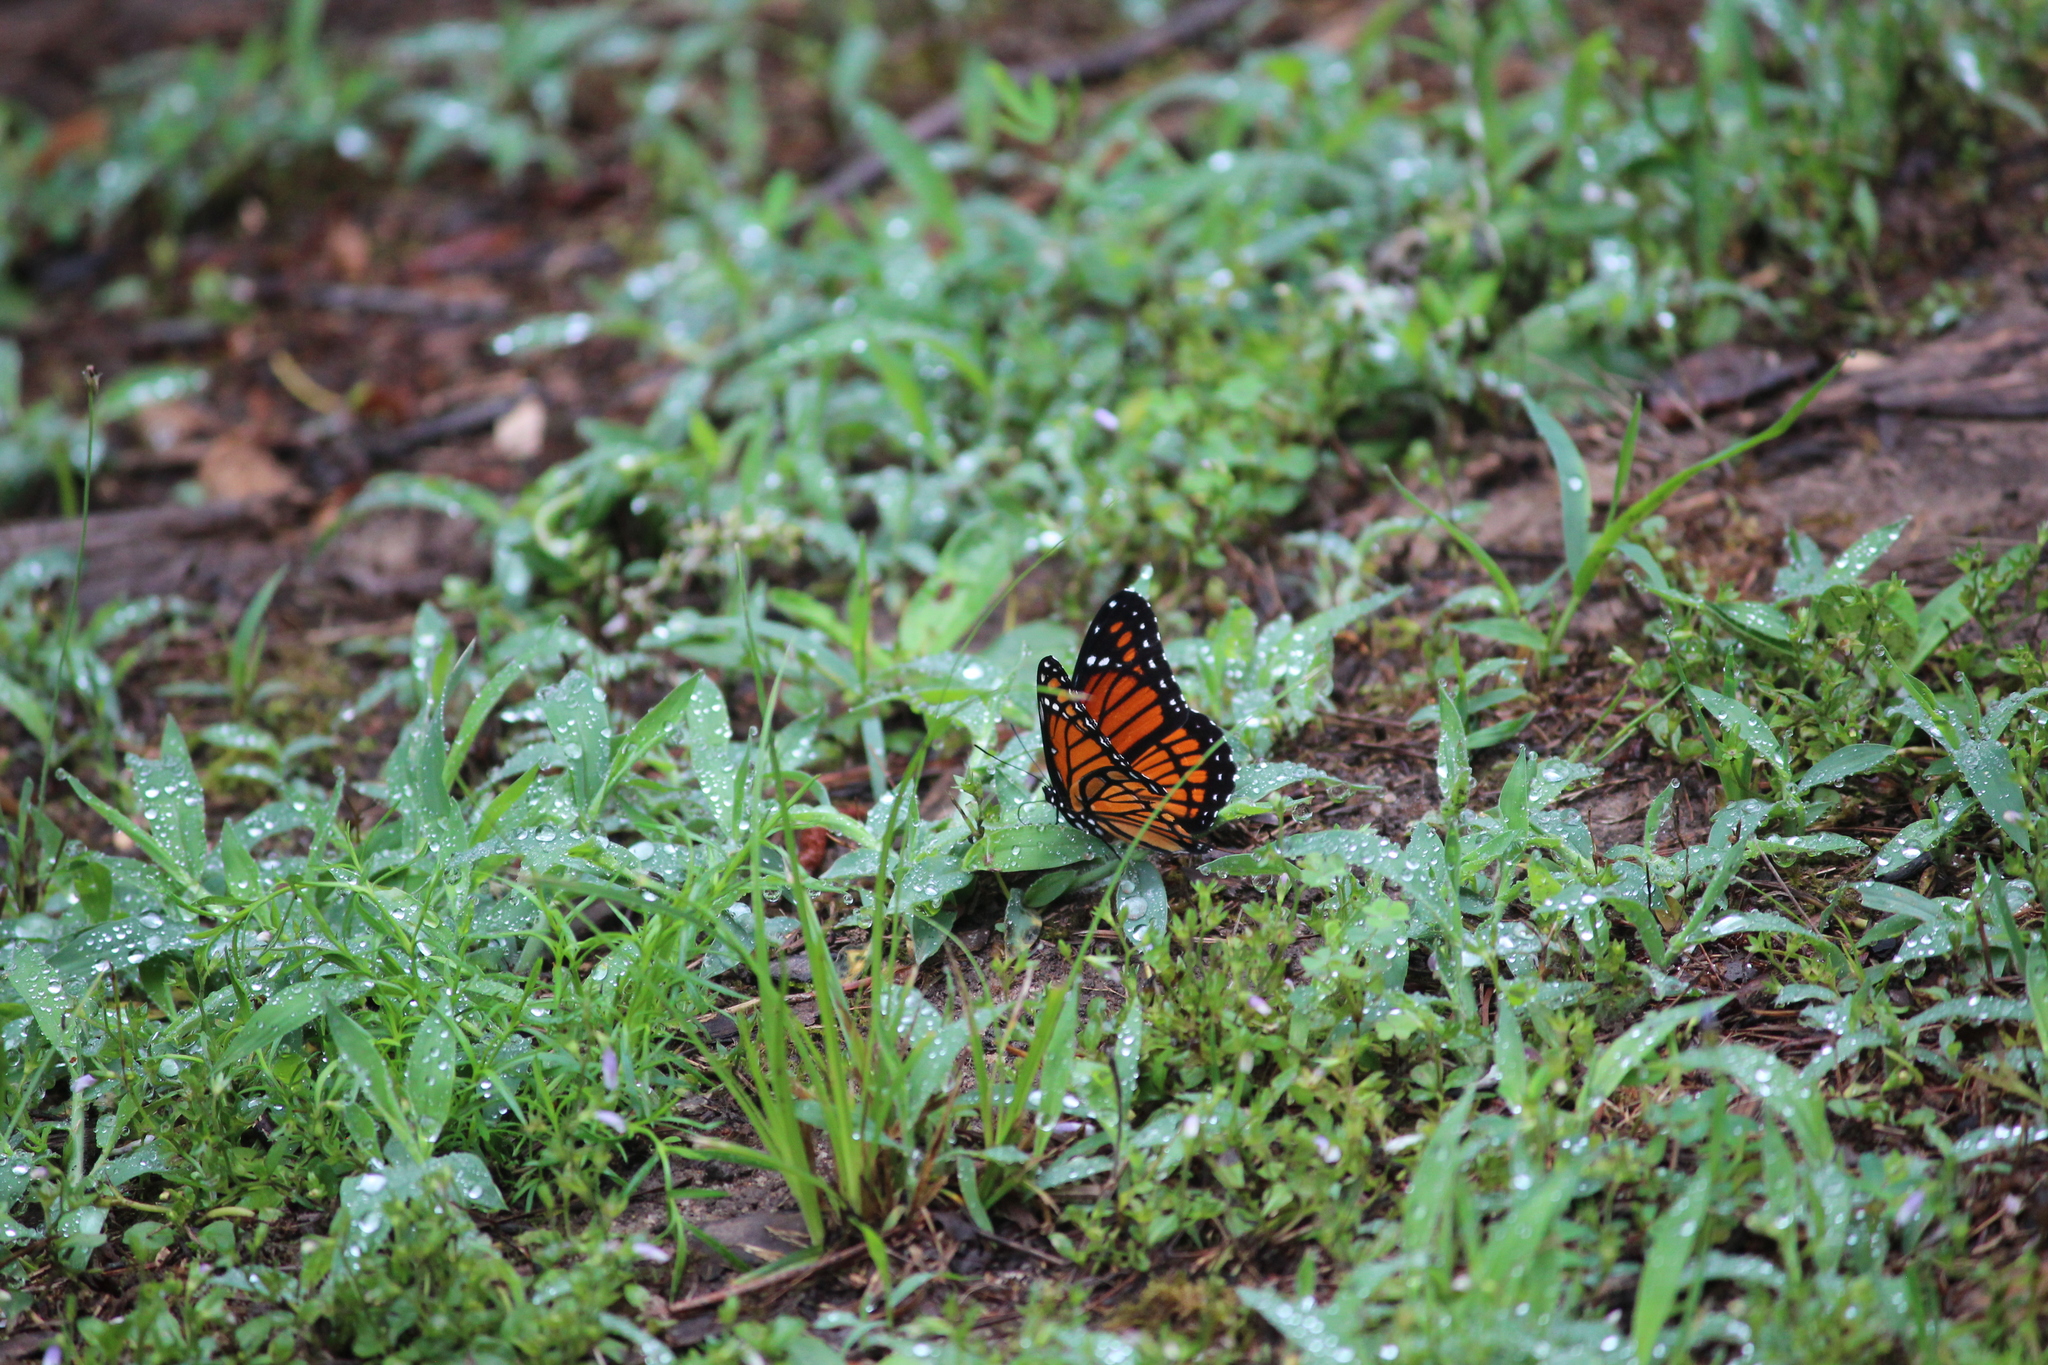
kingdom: Animalia
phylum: Arthropoda
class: Insecta
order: Lepidoptera
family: Nymphalidae
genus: Limenitis
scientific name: Limenitis archippus
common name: Viceroy
